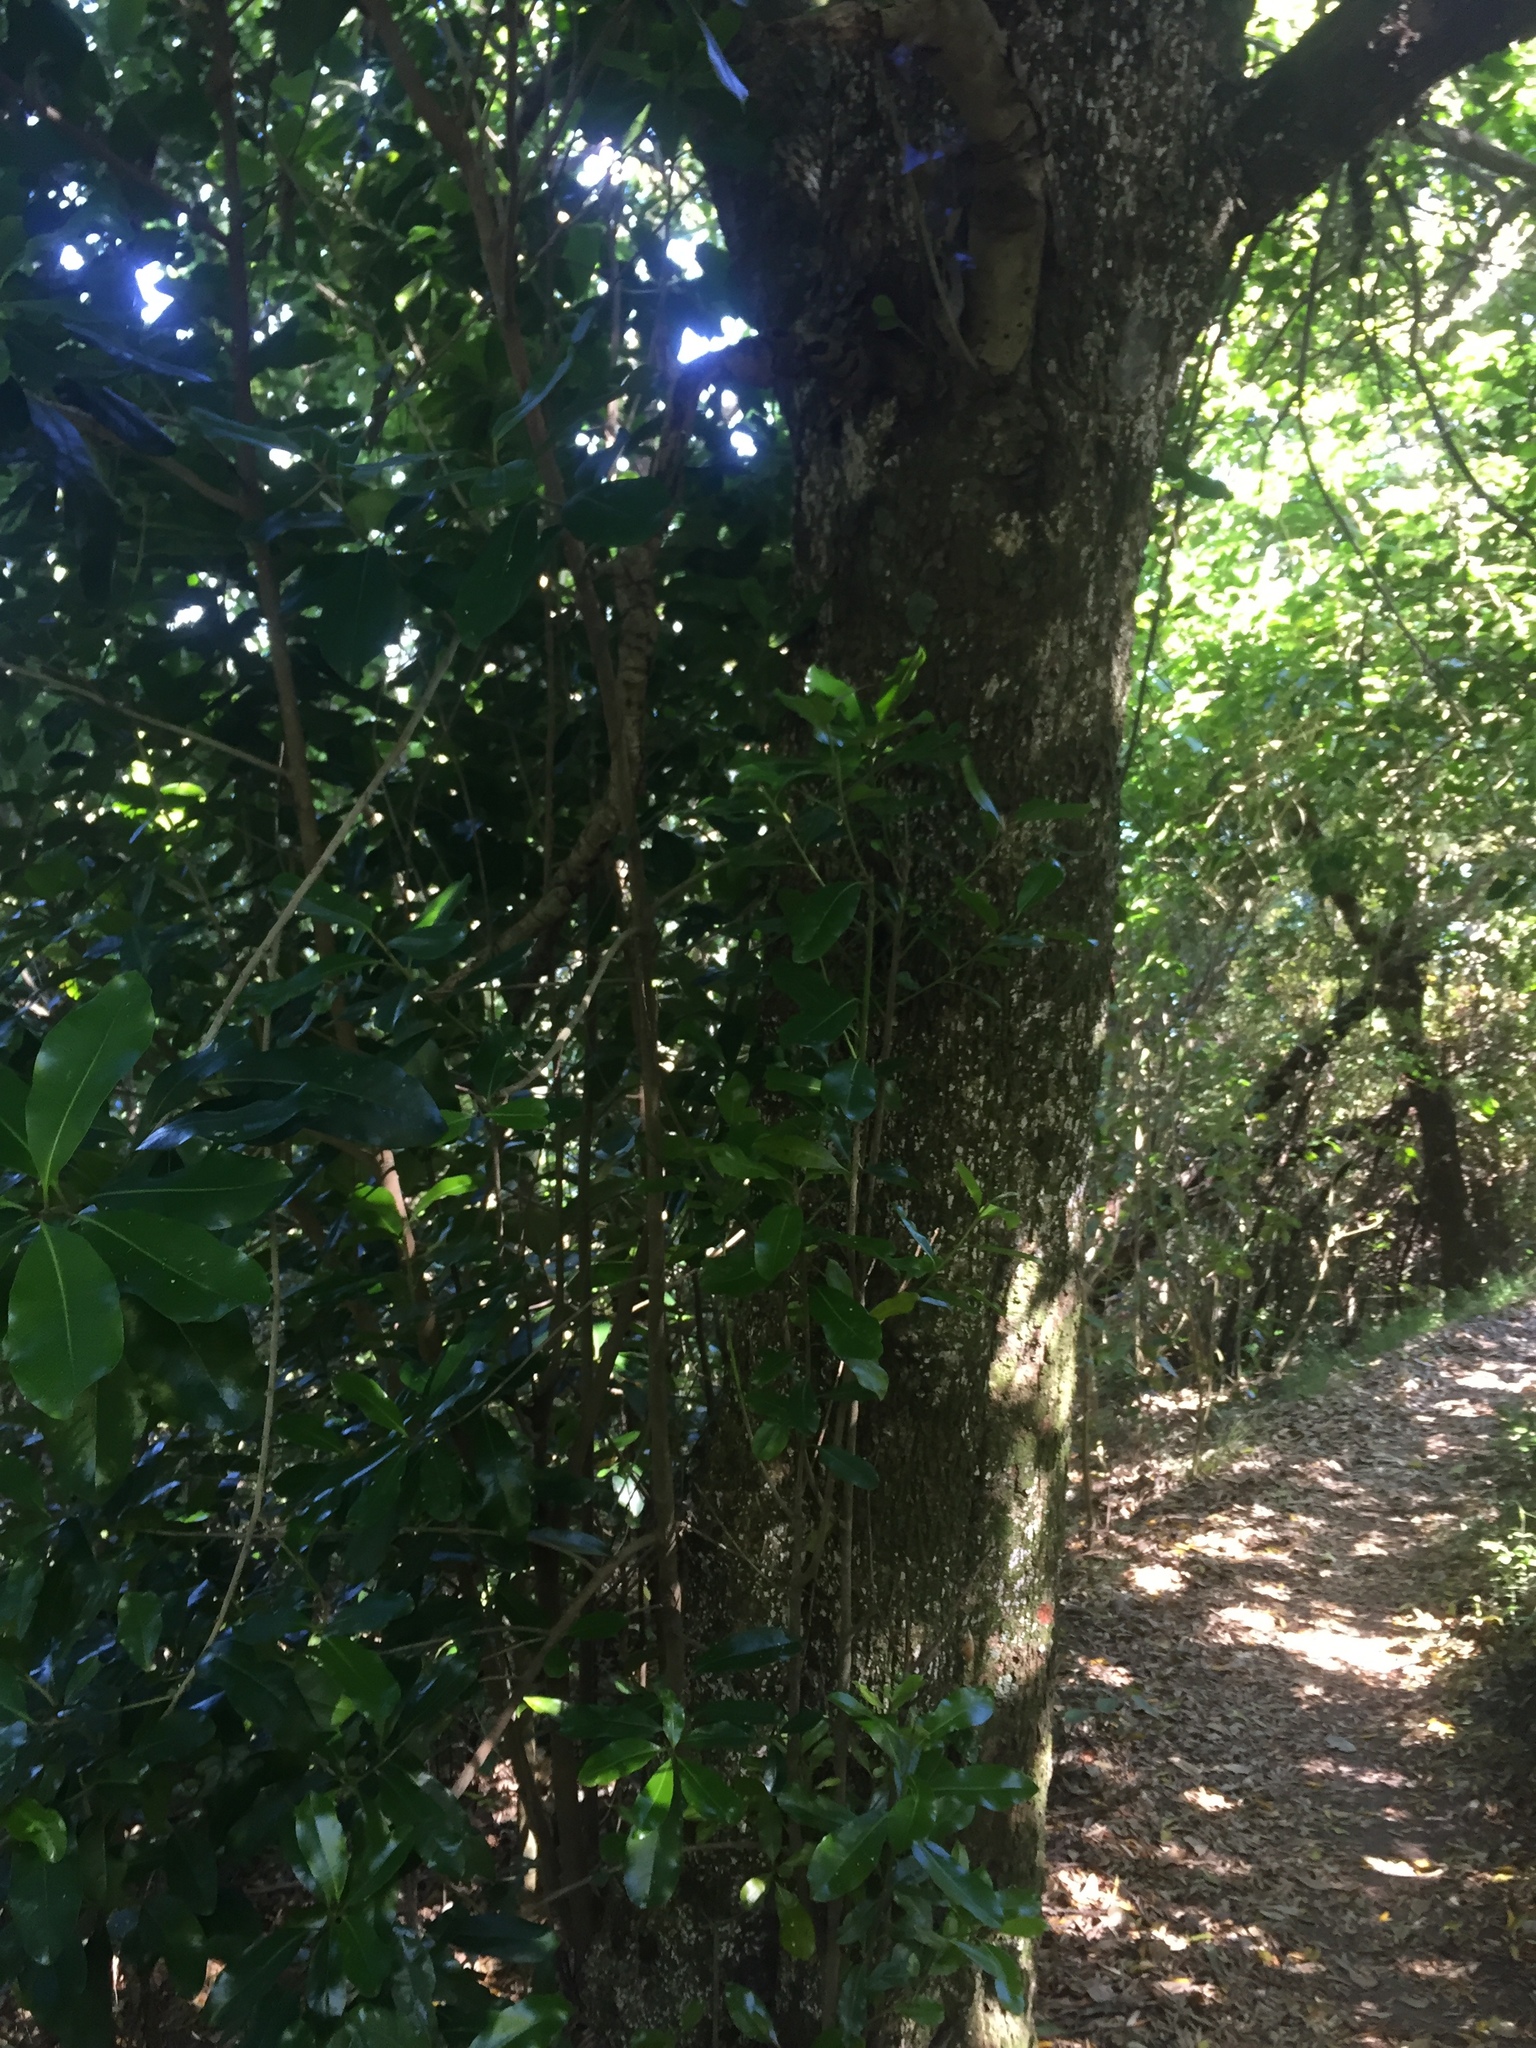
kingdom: Plantae
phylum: Tracheophyta
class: Magnoliopsida
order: Ericales
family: Sapotaceae
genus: Planchonella
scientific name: Planchonella costata
